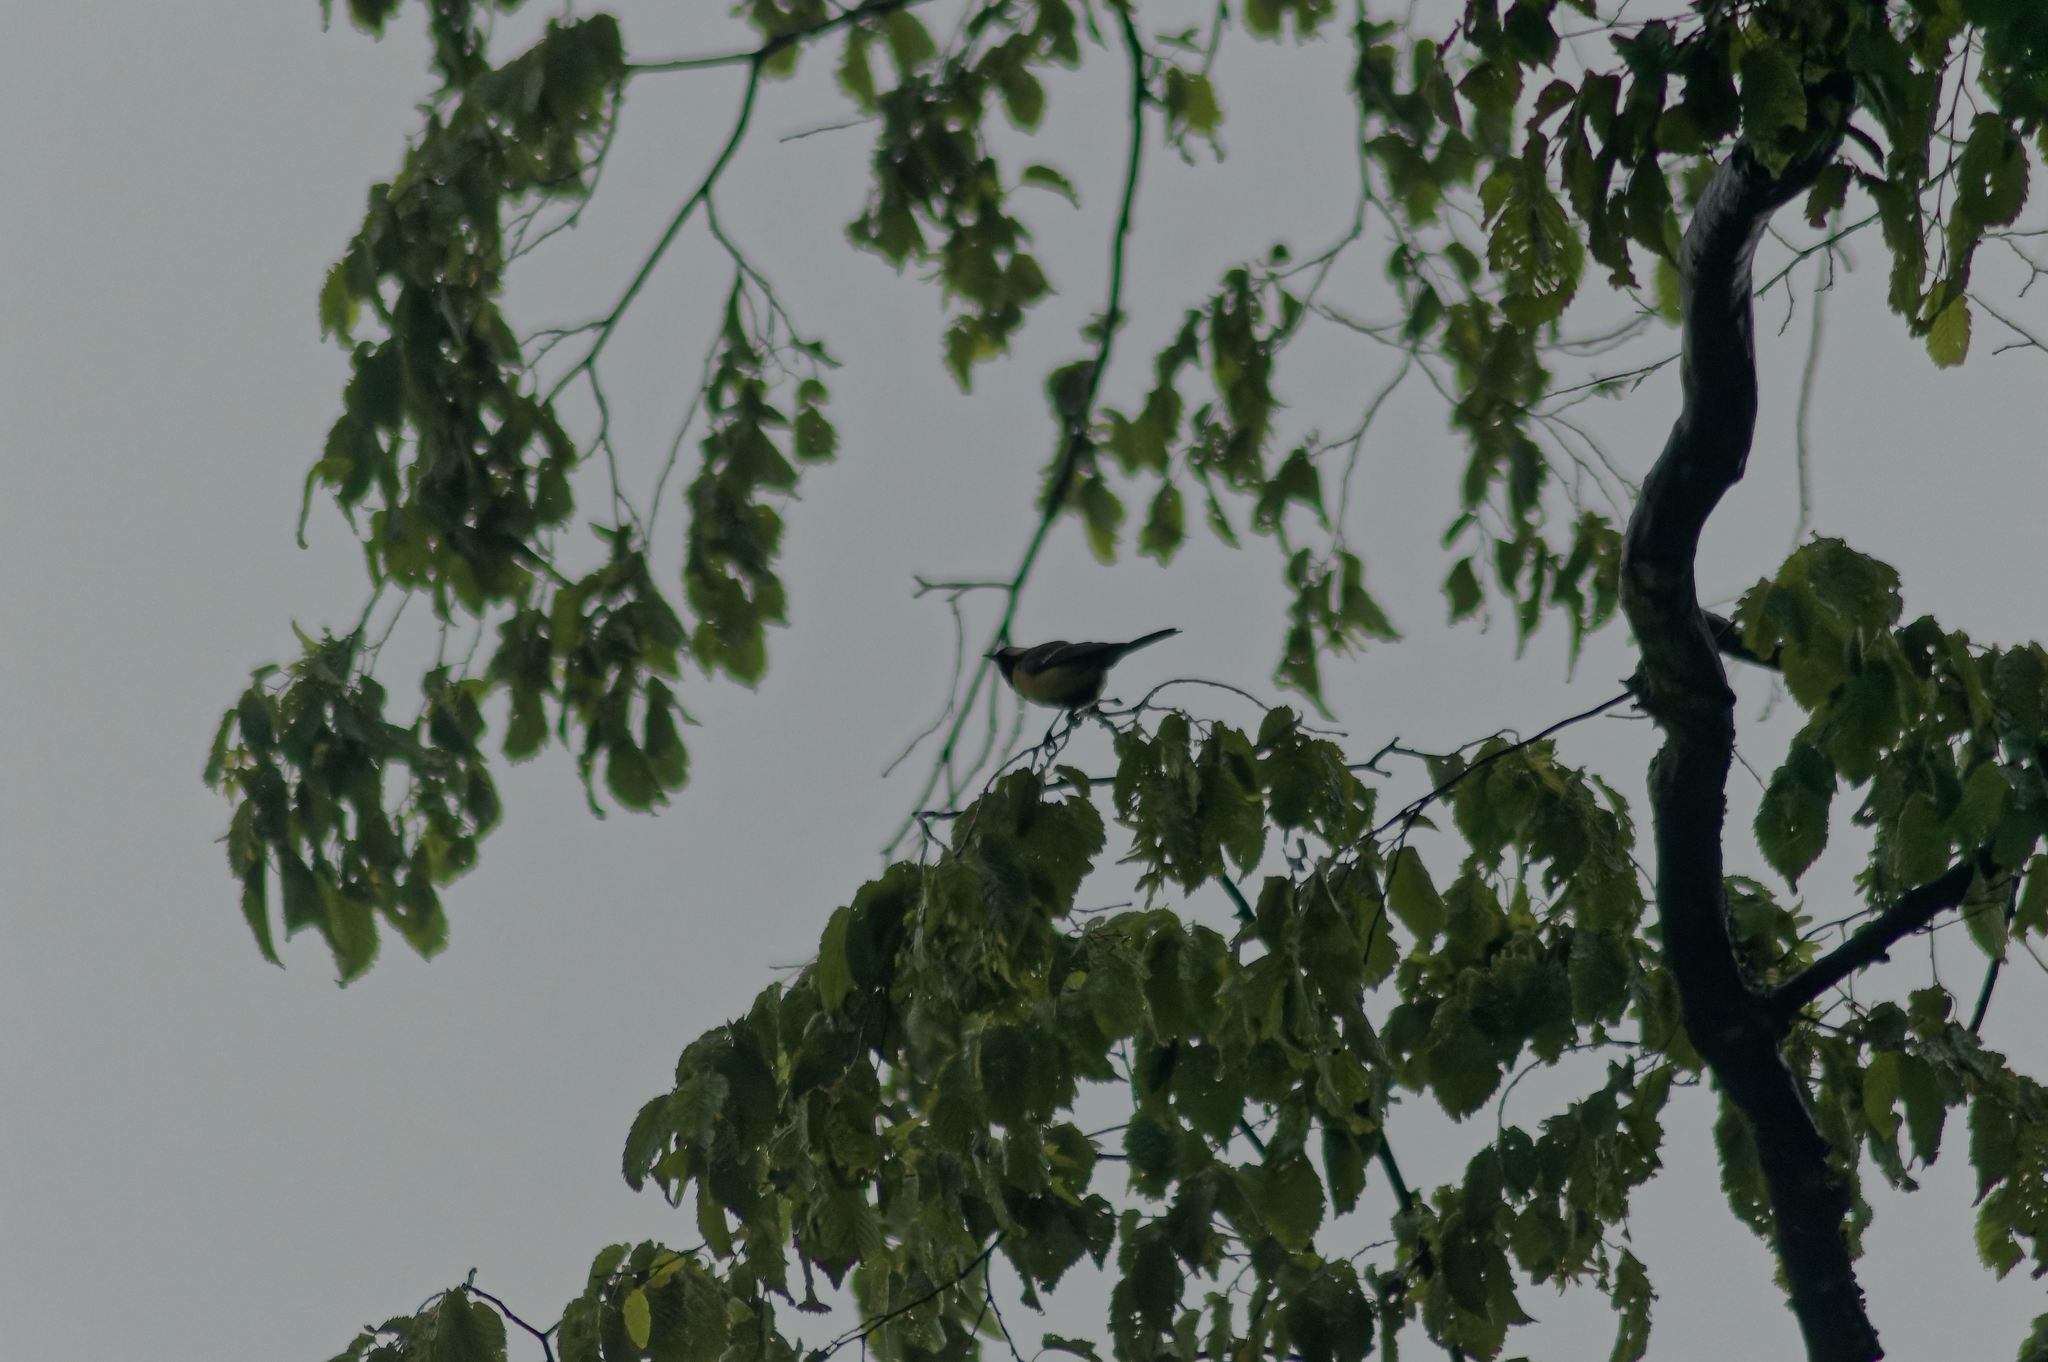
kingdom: Animalia
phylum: Chordata
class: Aves
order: Passeriformes
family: Paridae
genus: Parus
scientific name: Parus major
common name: Great tit
